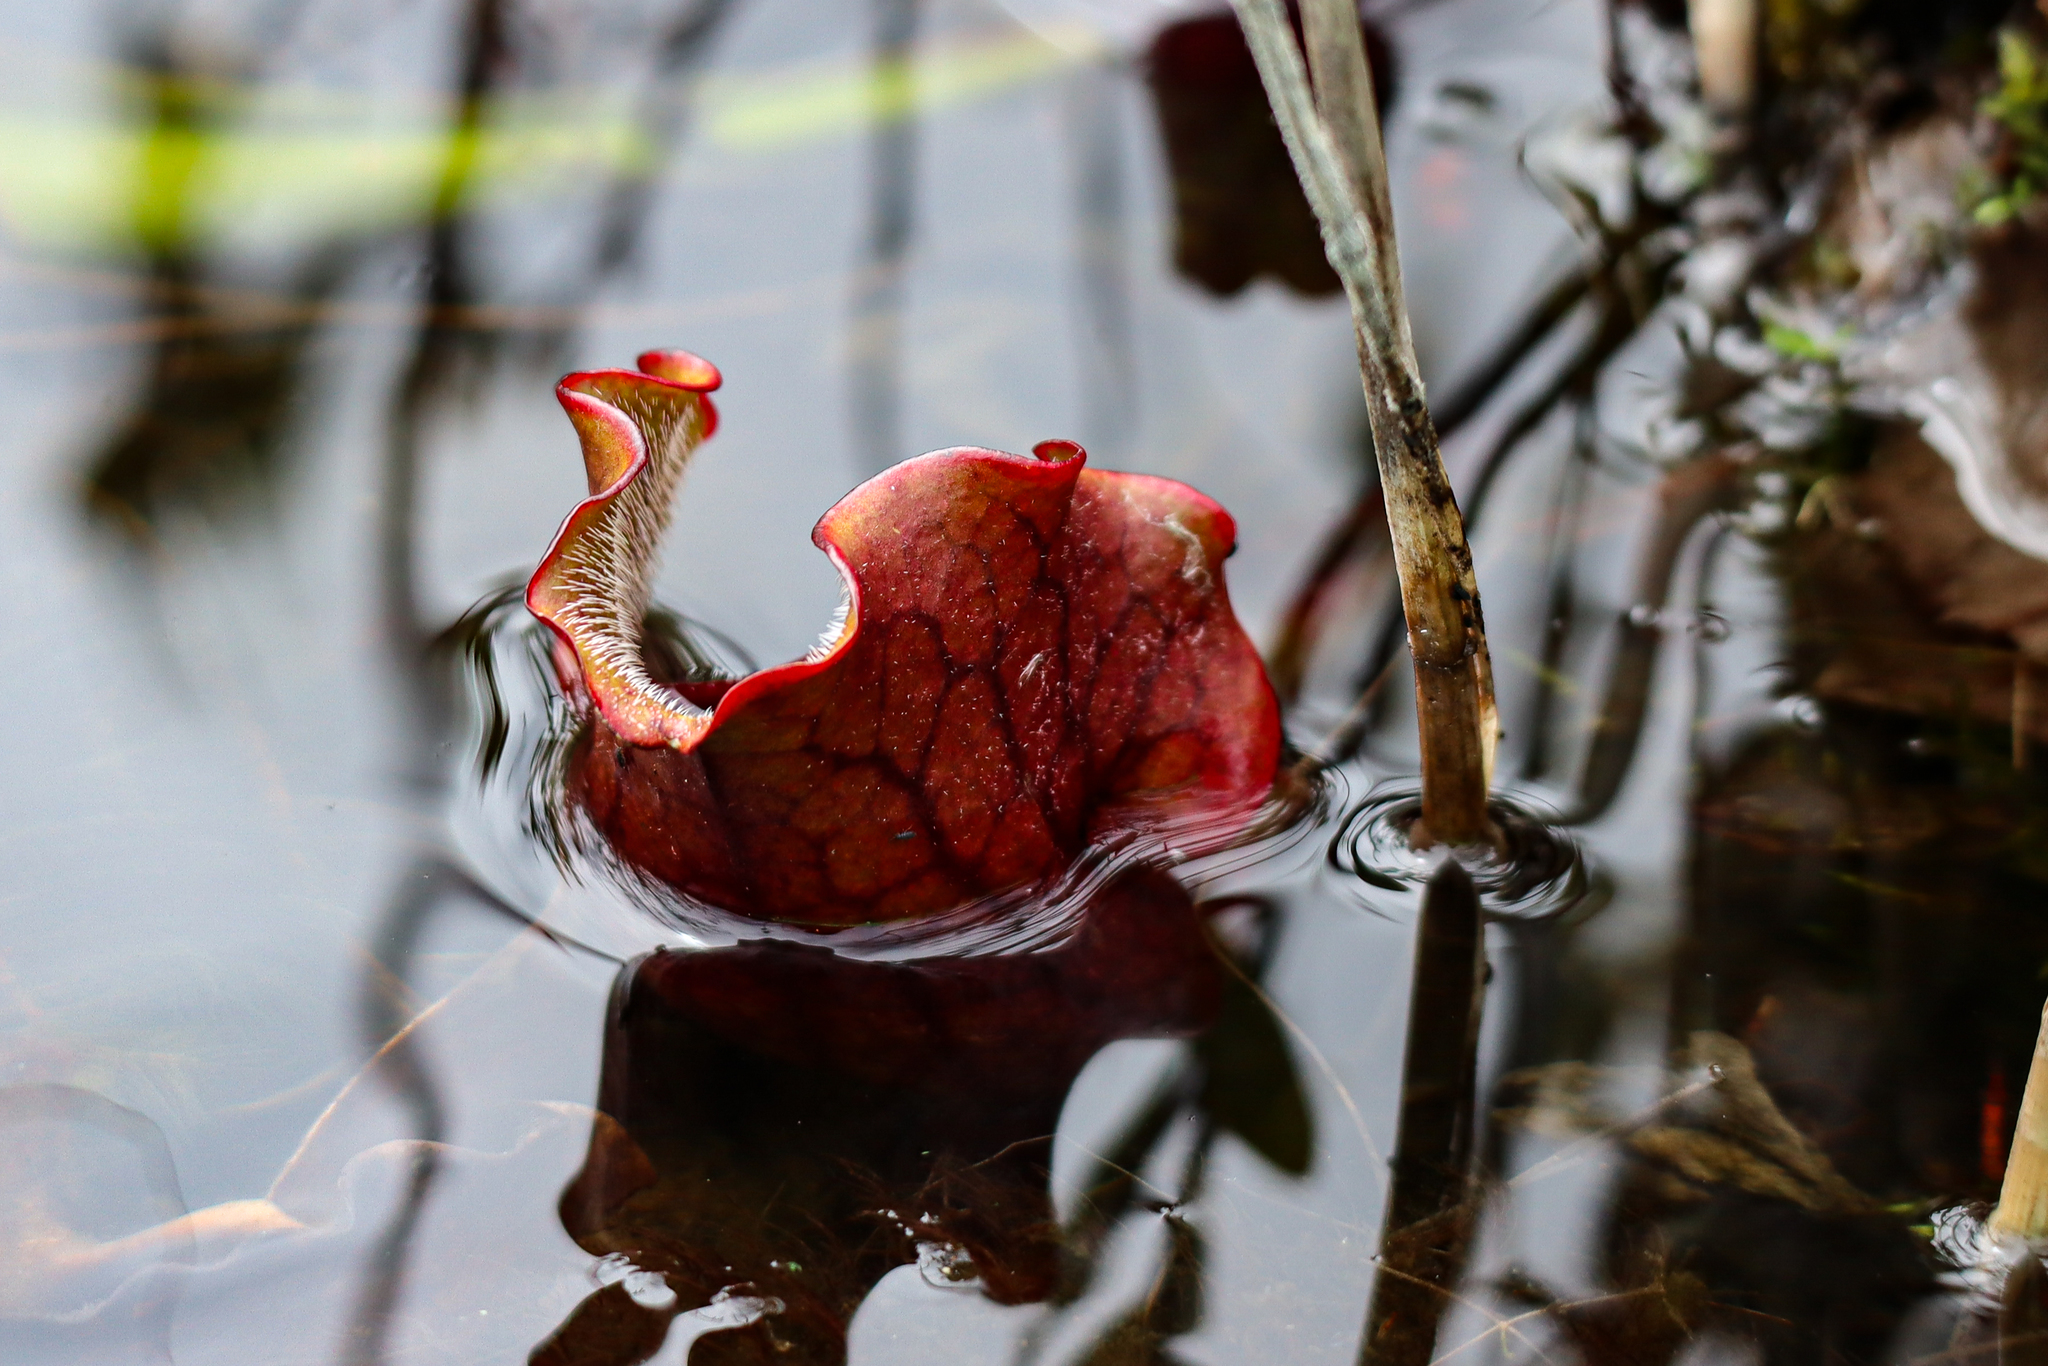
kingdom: Plantae
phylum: Tracheophyta
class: Magnoliopsida
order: Ericales
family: Sarraceniaceae
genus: Sarracenia
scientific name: Sarracenia purpurea
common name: Pitcherplant
